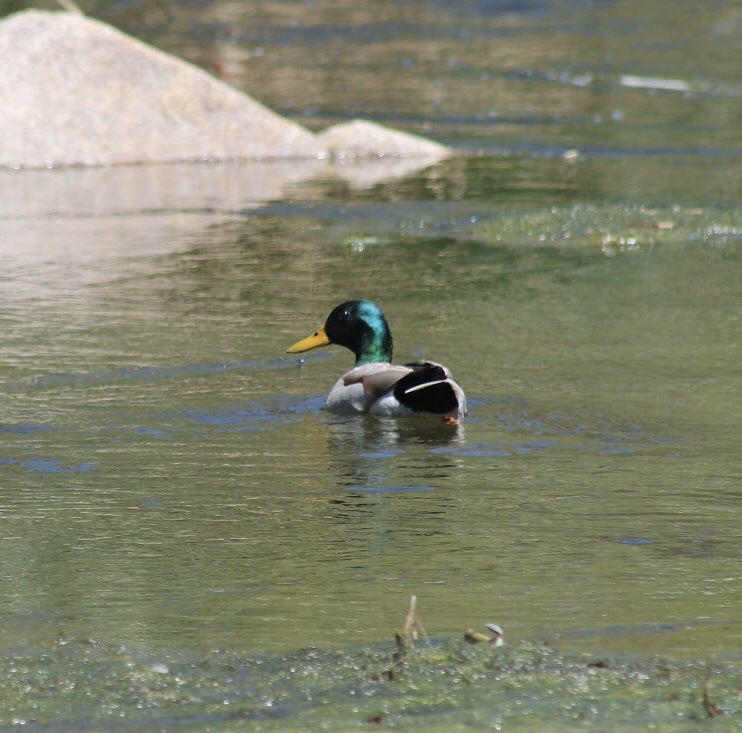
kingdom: Animalia
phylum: Chordata
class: Aves
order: Anseriformes
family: Anatidae
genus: Anas
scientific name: Anas platyrhynchos
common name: Mallard
